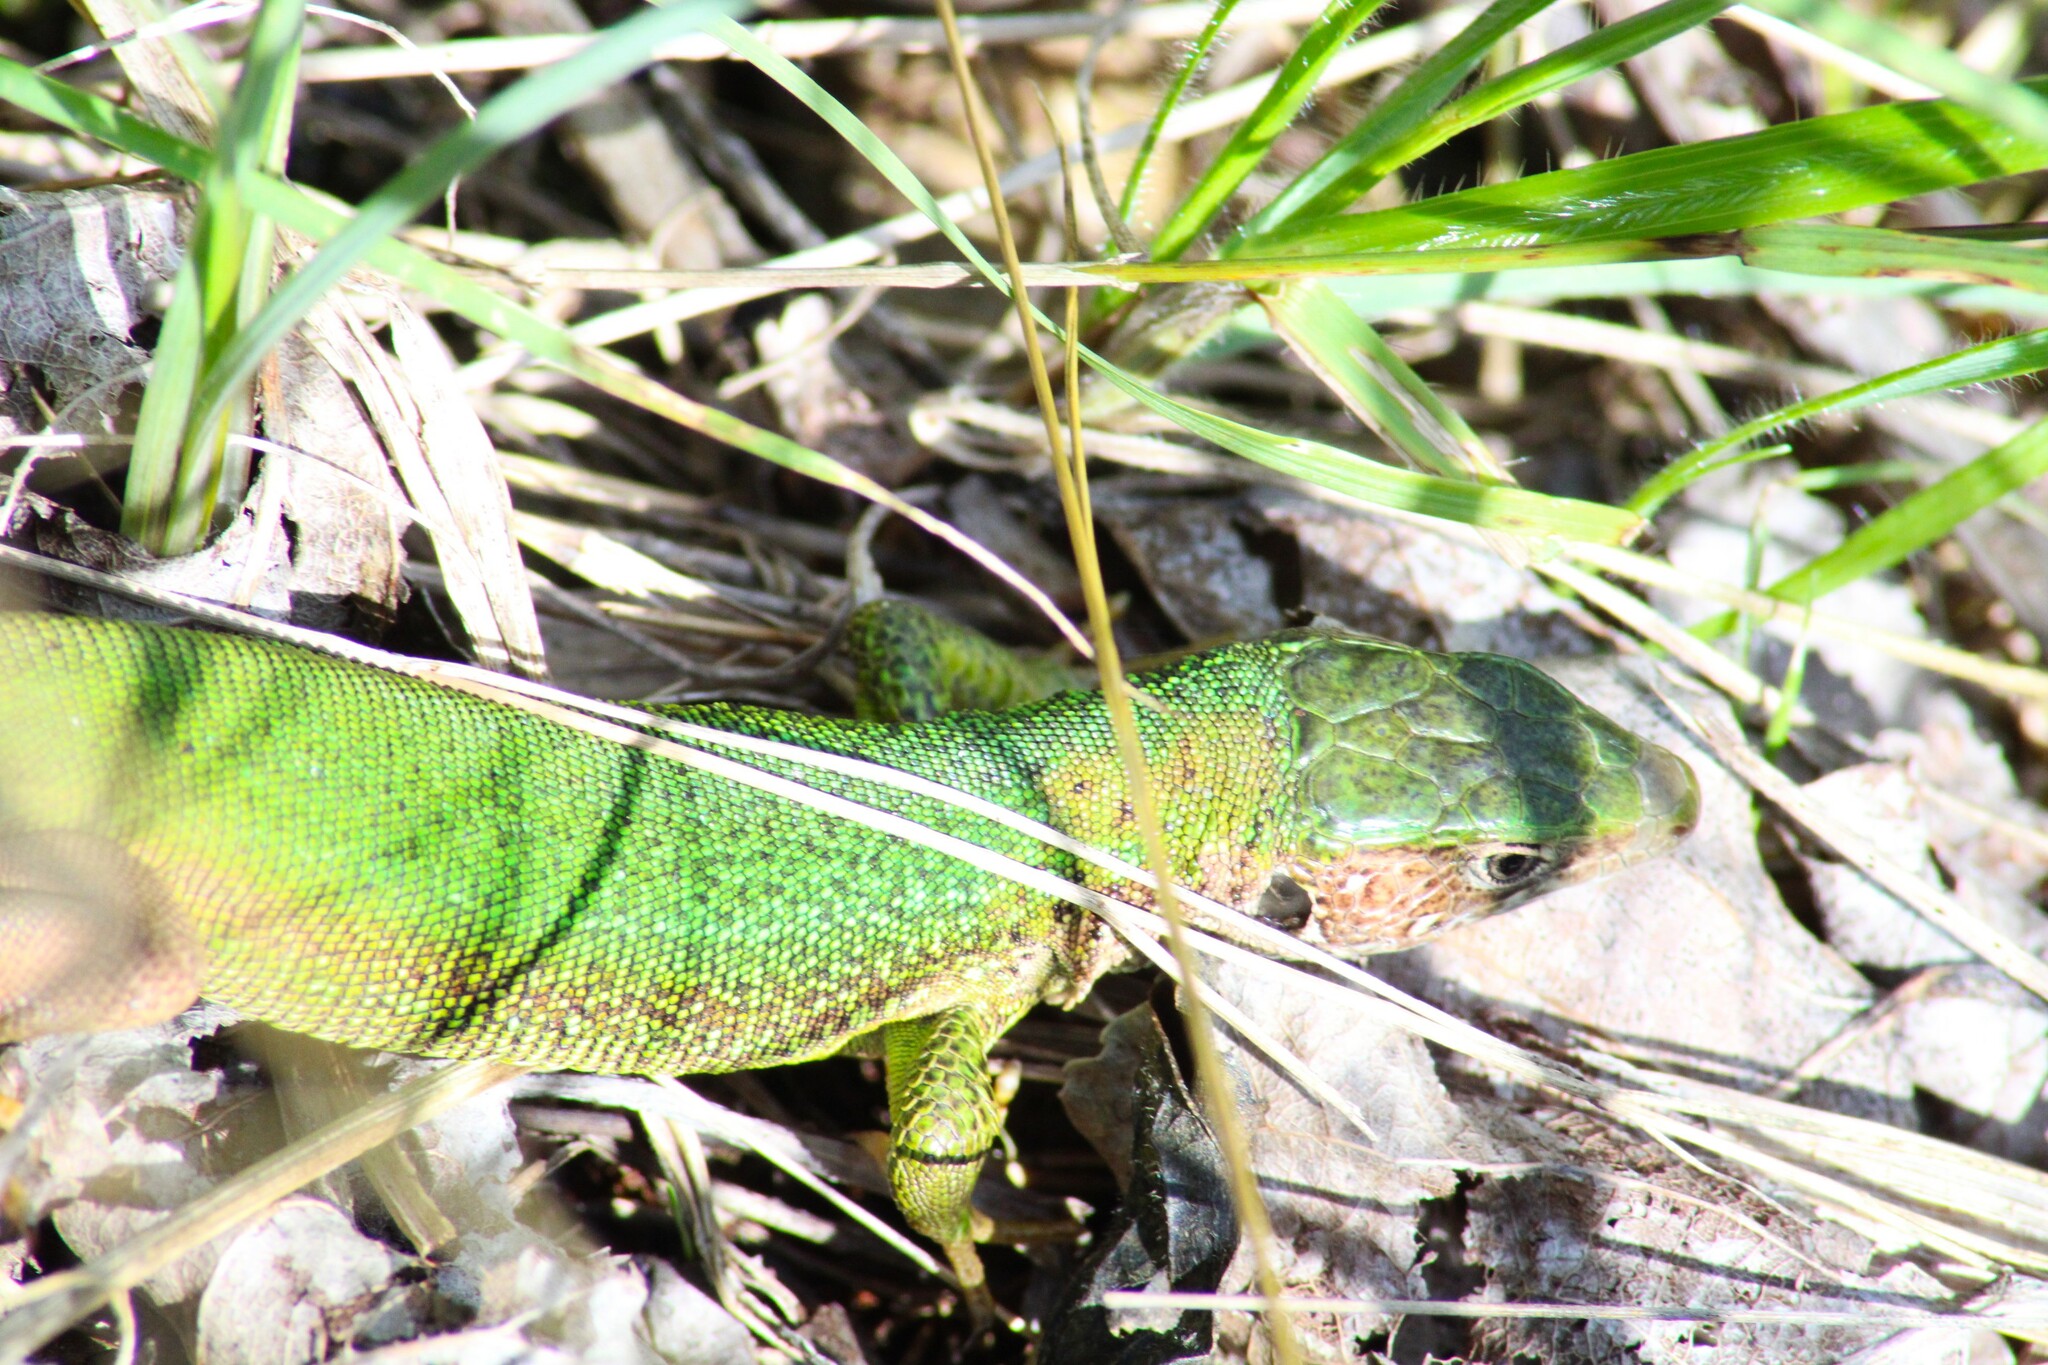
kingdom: Animalia
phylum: Chordata
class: Squamata
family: Lacertidae
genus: Lacerta
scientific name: Lacerta viridis
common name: European green lizard
